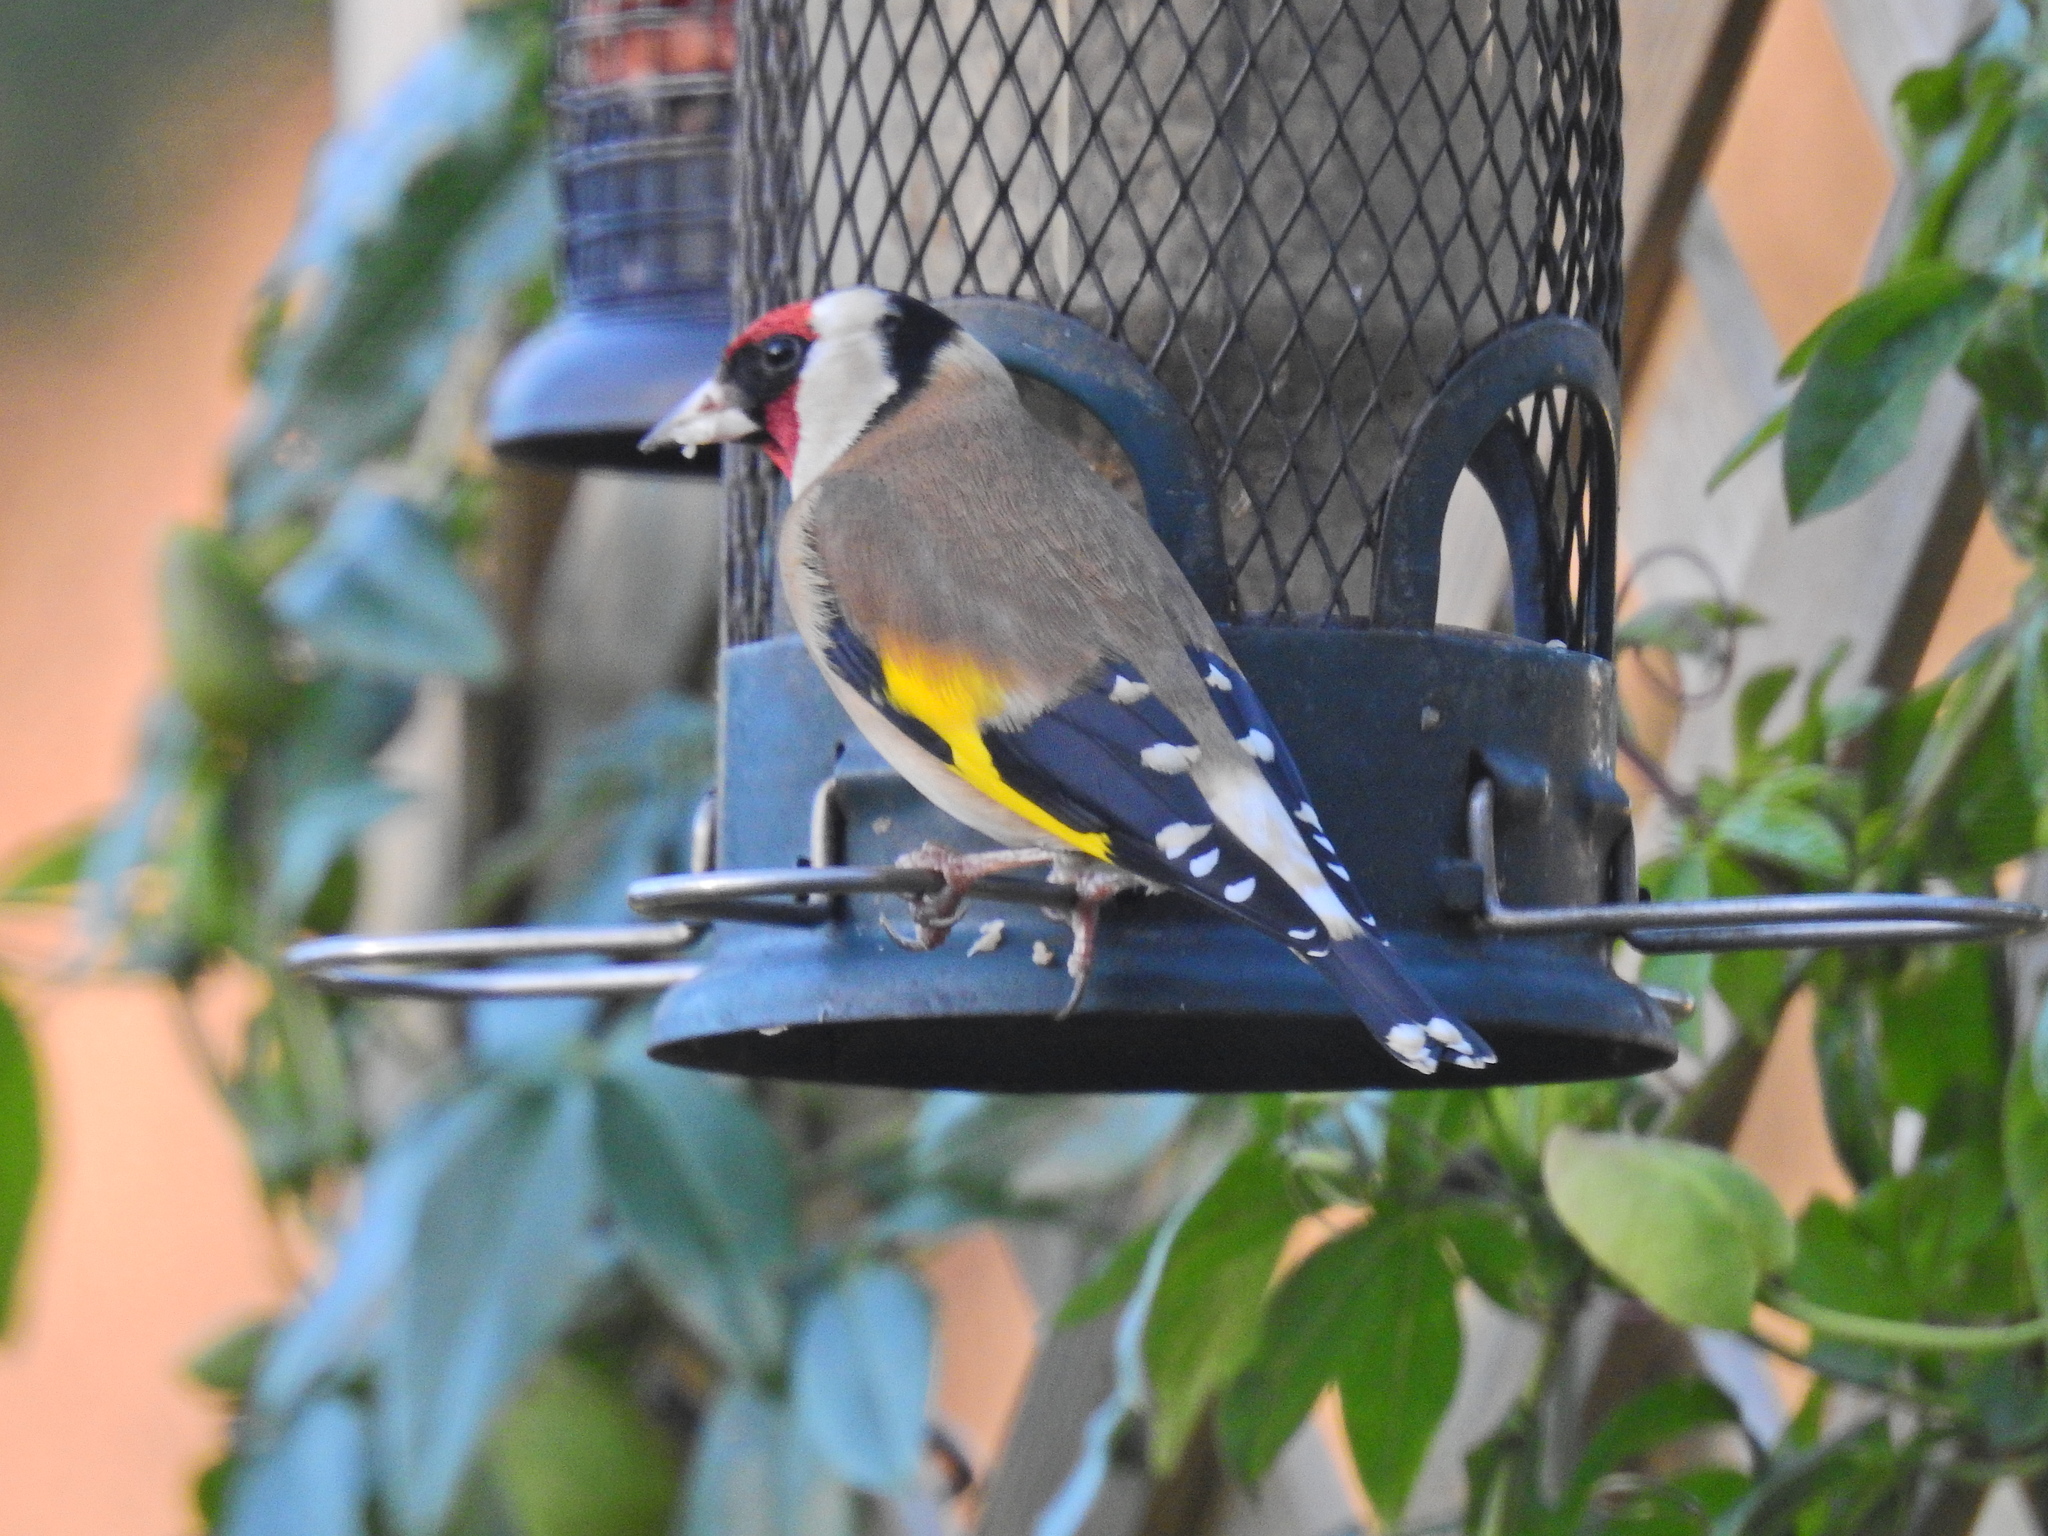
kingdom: Animalia
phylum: Chordata
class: Aves
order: Passeriformes
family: Fringillidae
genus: Carduelis
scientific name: Carduelis carduelis
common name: European goldfinch
